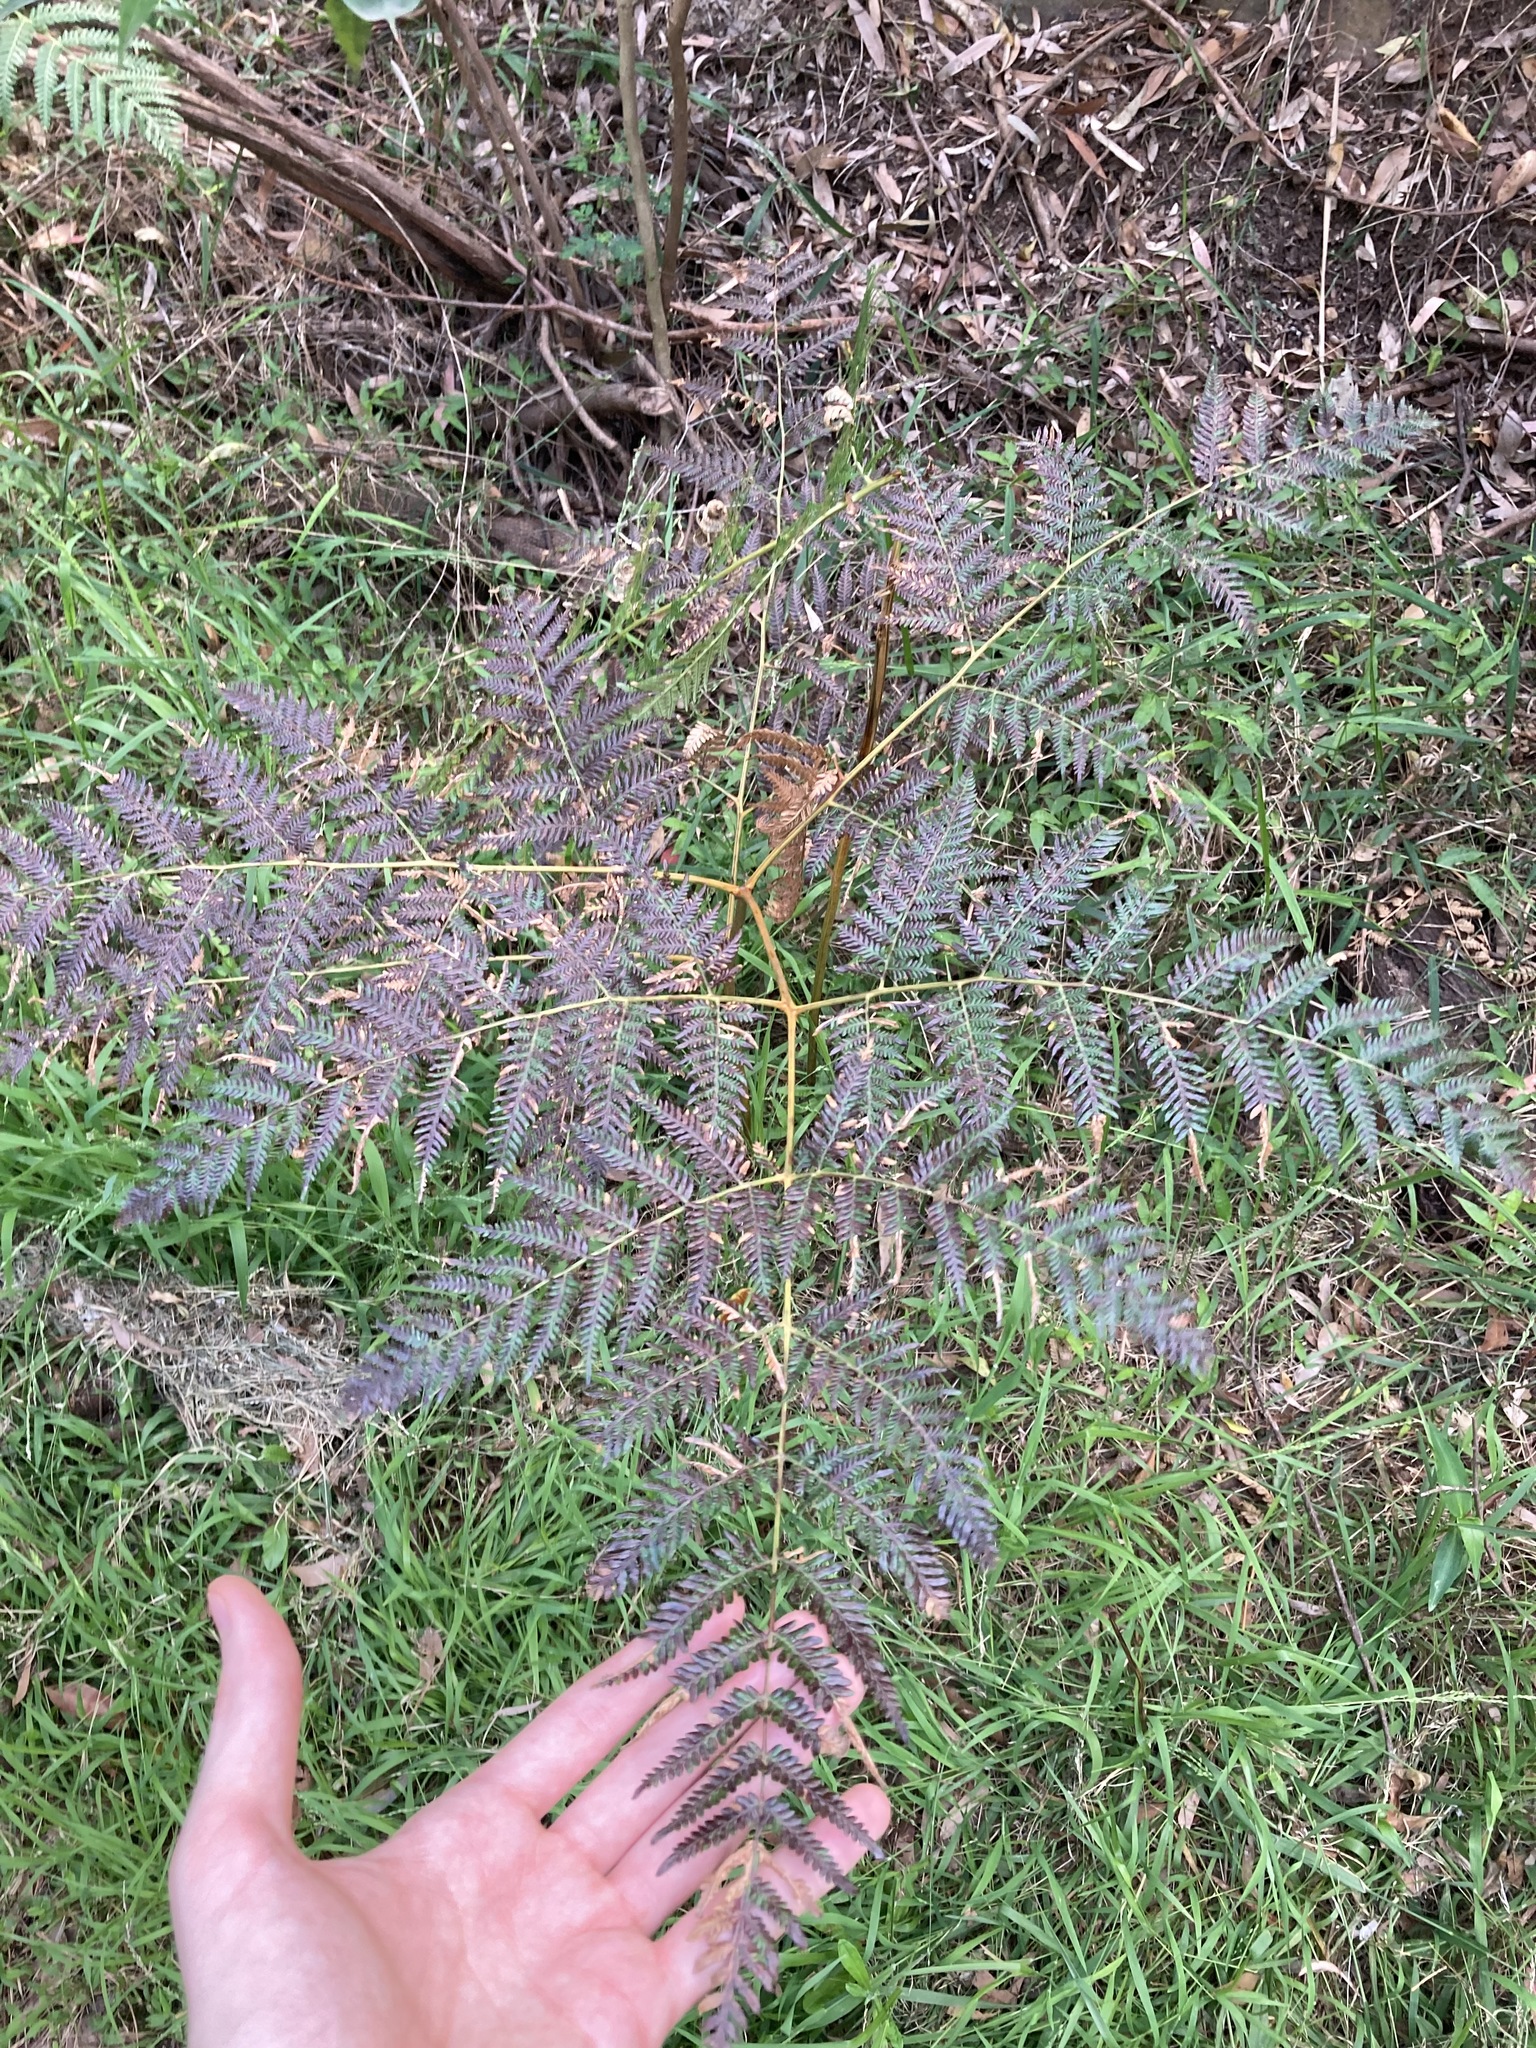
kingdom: Plantae
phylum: Tracheophyta
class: Polypodiopsida
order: Polypodiales
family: Dennstaedtiaceae
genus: Pteridium
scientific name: Pteridium esculentum
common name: Bracken fern
